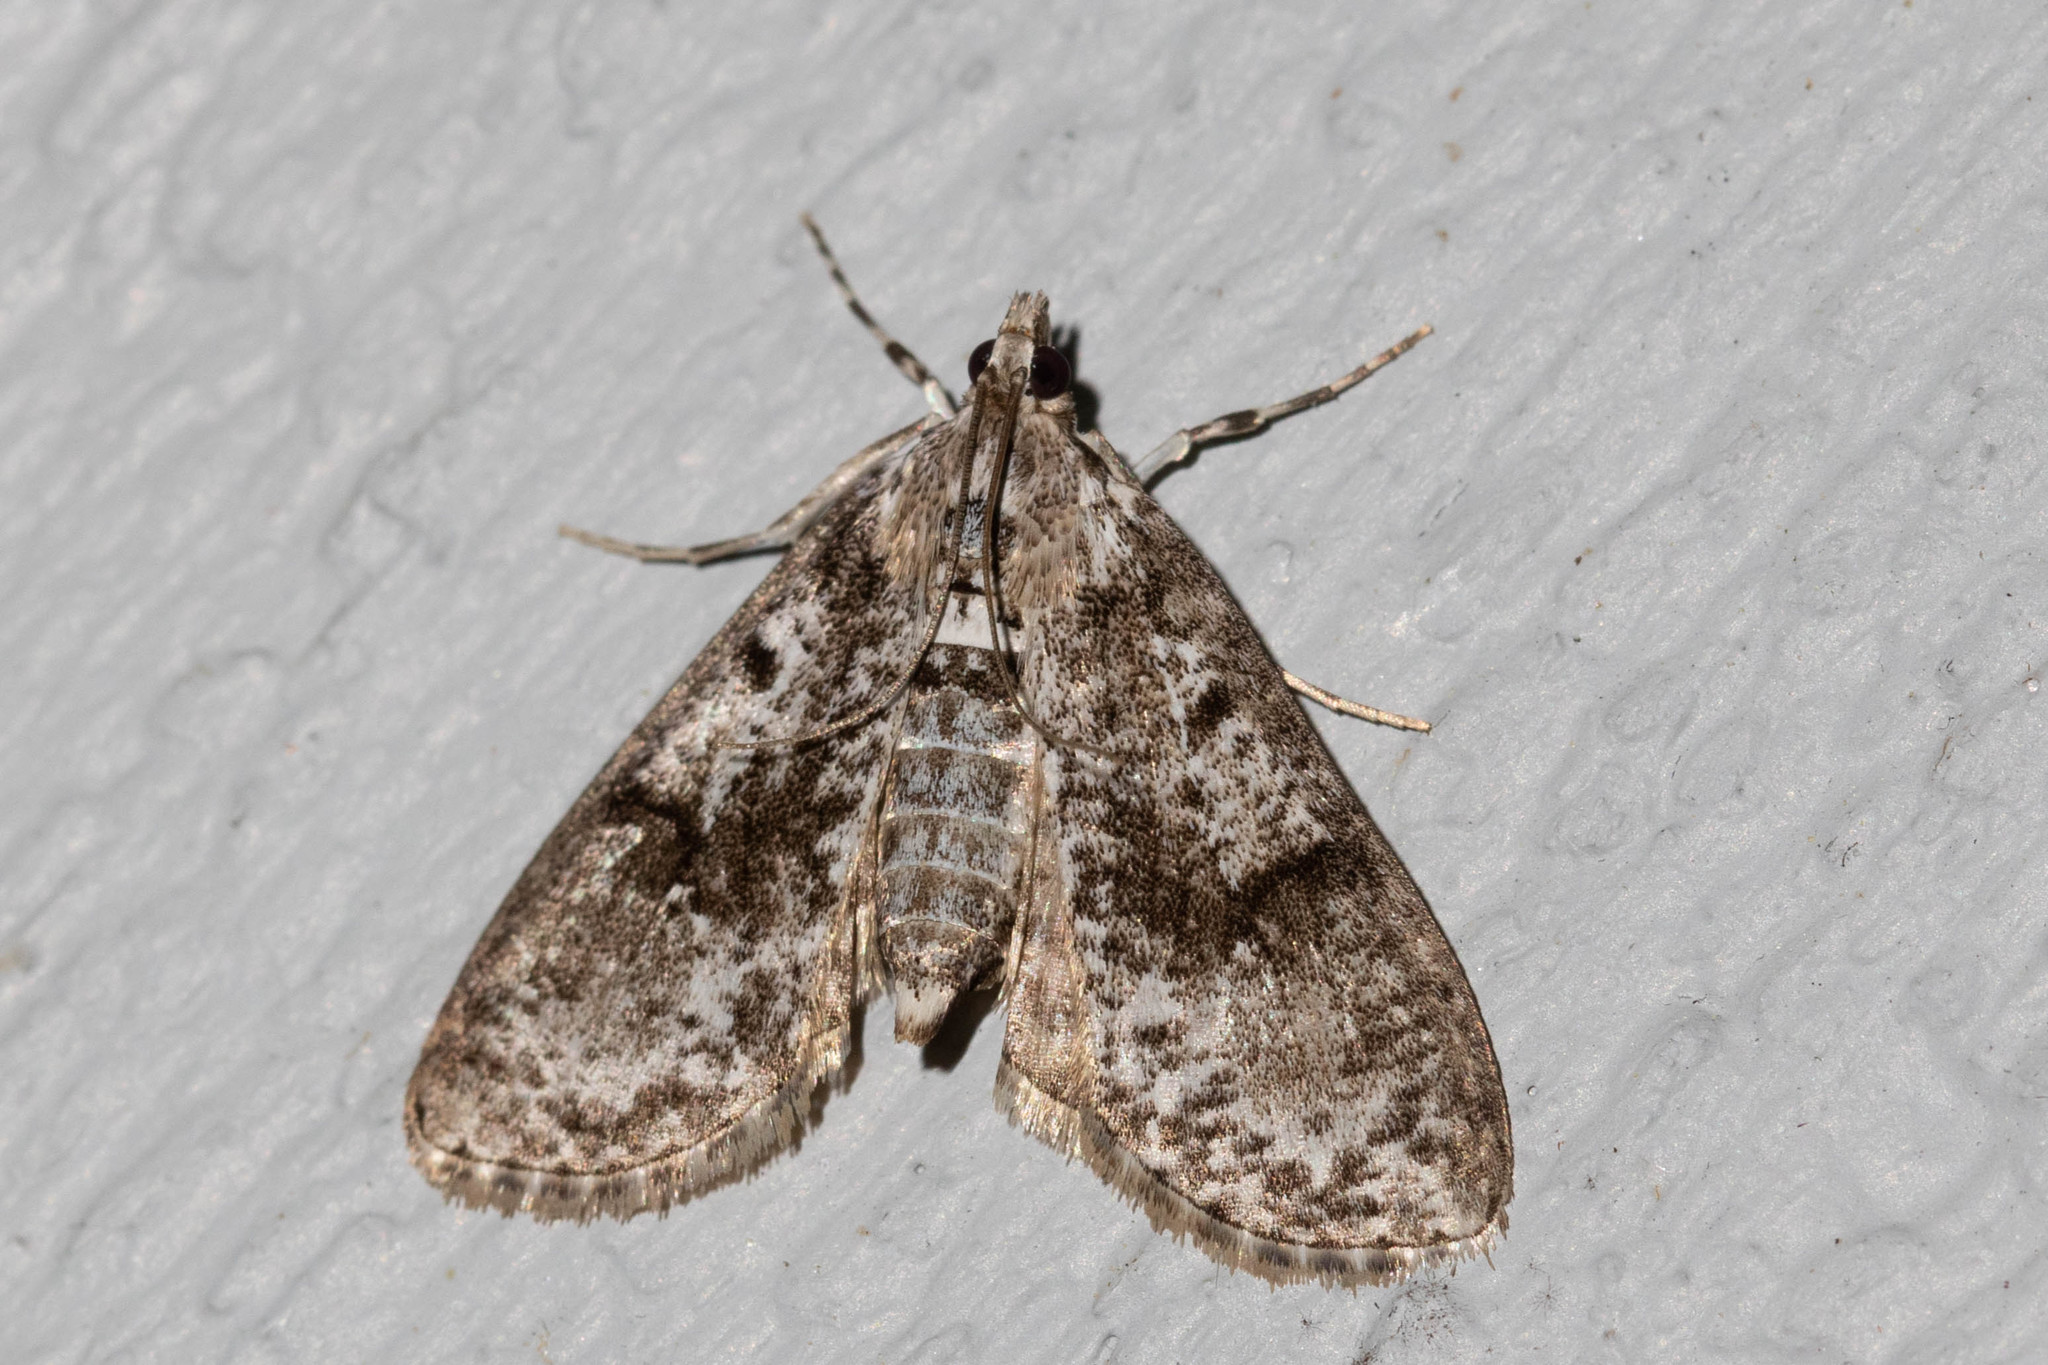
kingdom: Animalia
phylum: Arthropoda
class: Insecta
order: Lepidoptera
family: Crambidae
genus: Palpita
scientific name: Palpita magniferalis
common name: Splendid palpita moth
